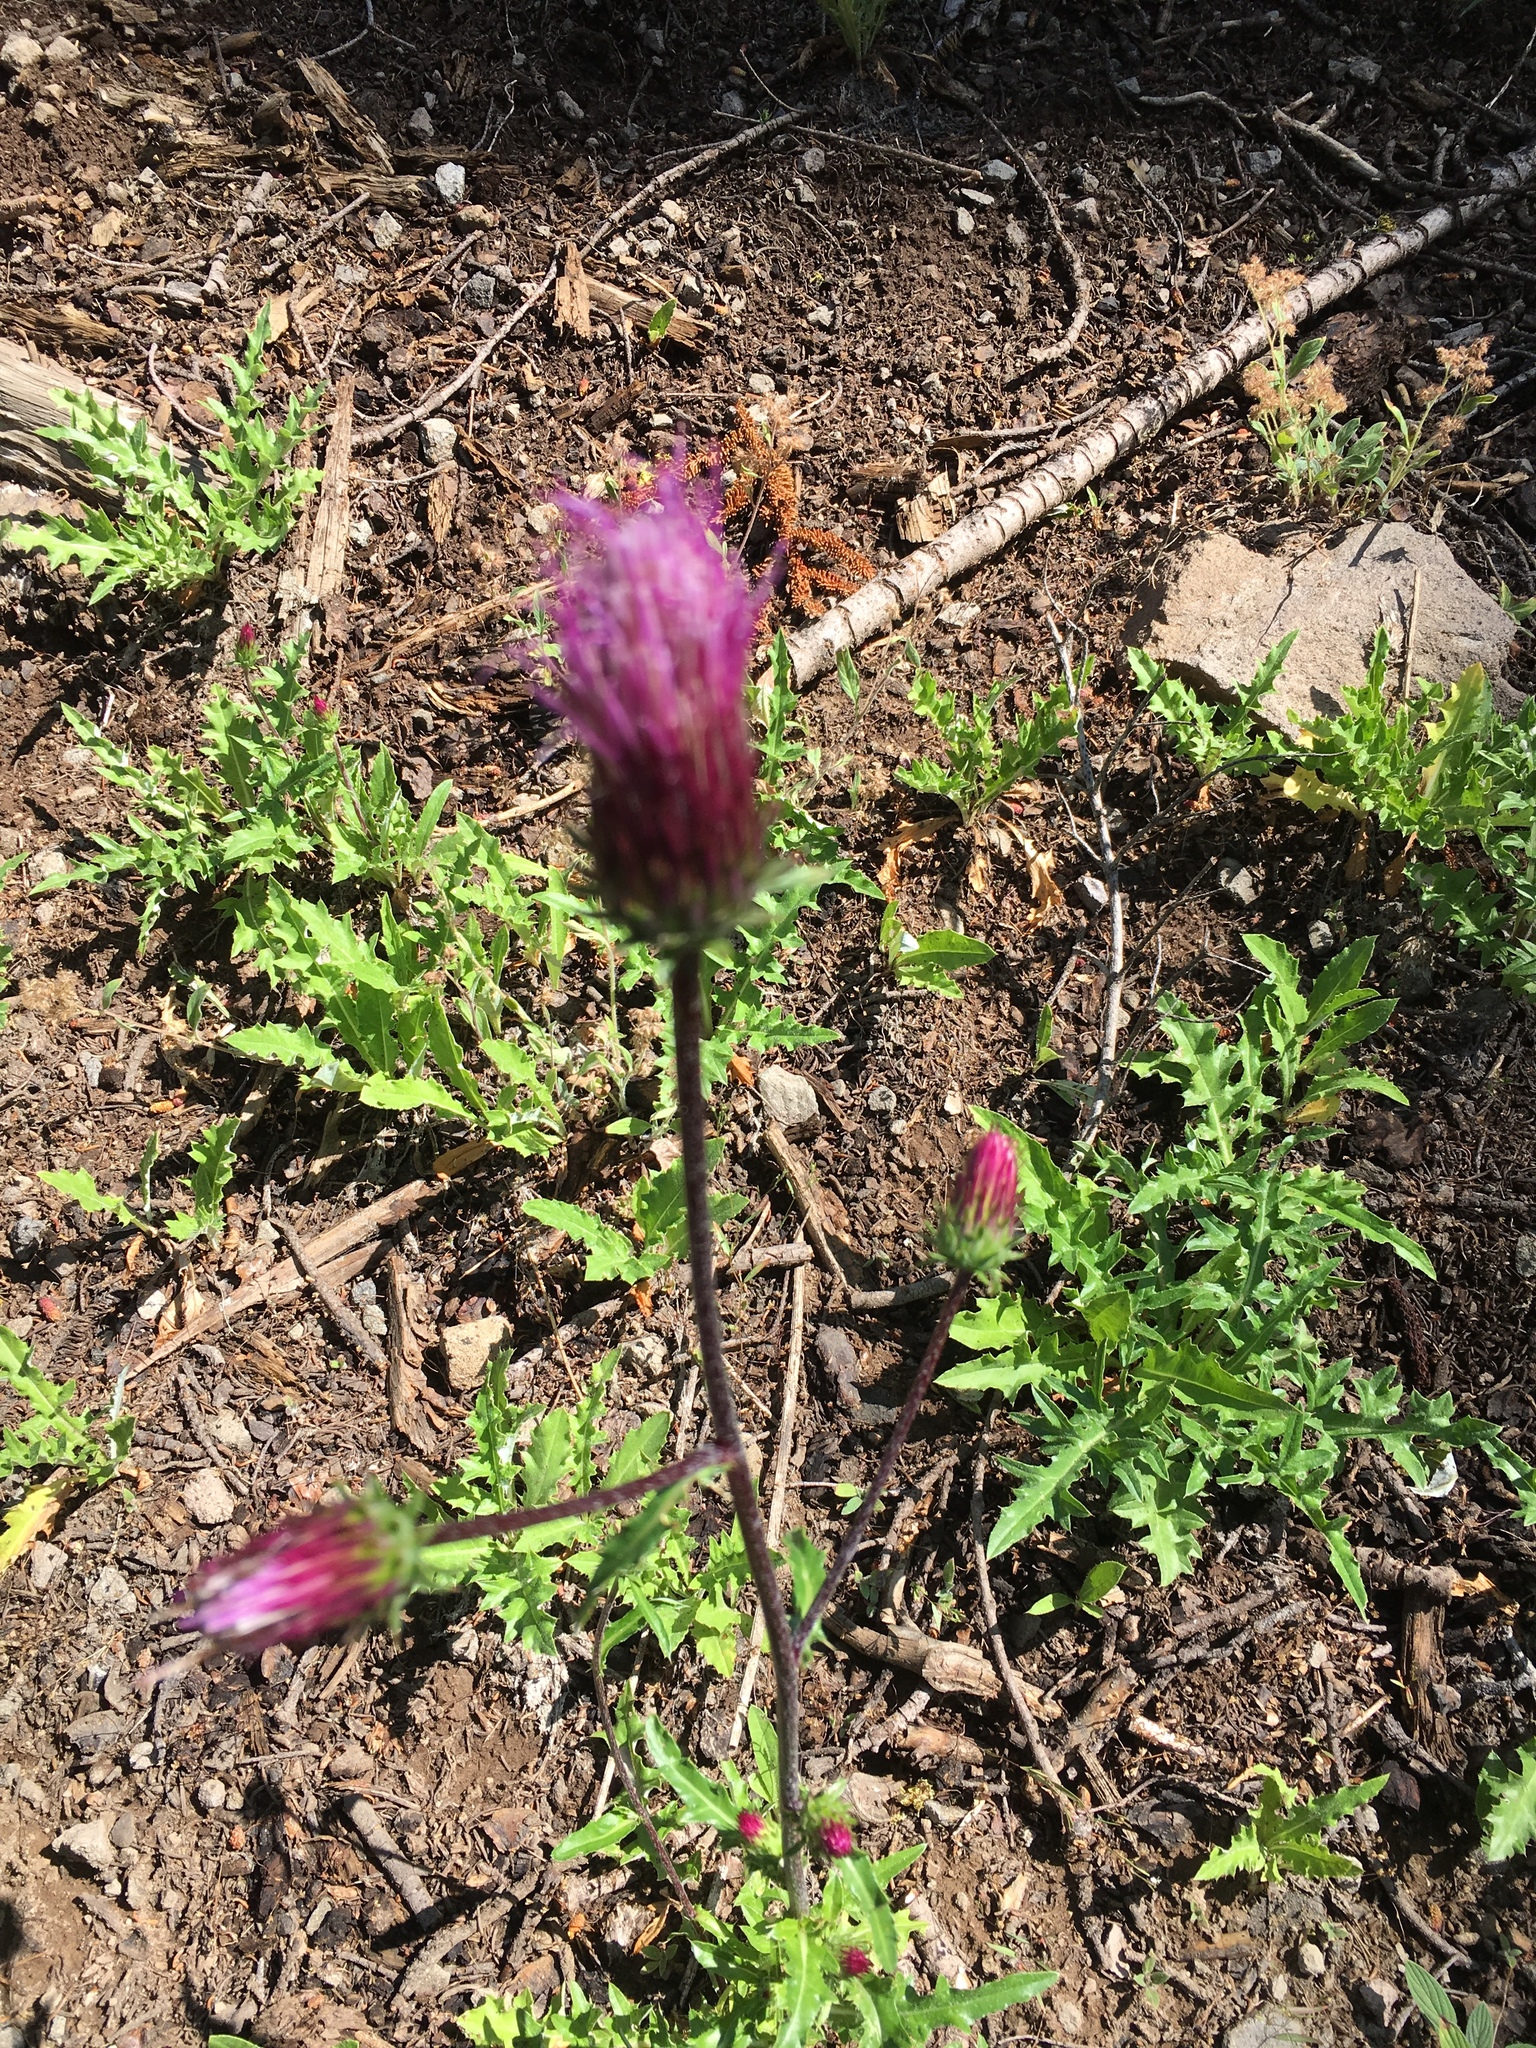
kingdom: Plantae
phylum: Tracheophyta
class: Magnoliopsida
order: Asterales
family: Asteraceae
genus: Cirsium
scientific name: Cirsium andersonii
